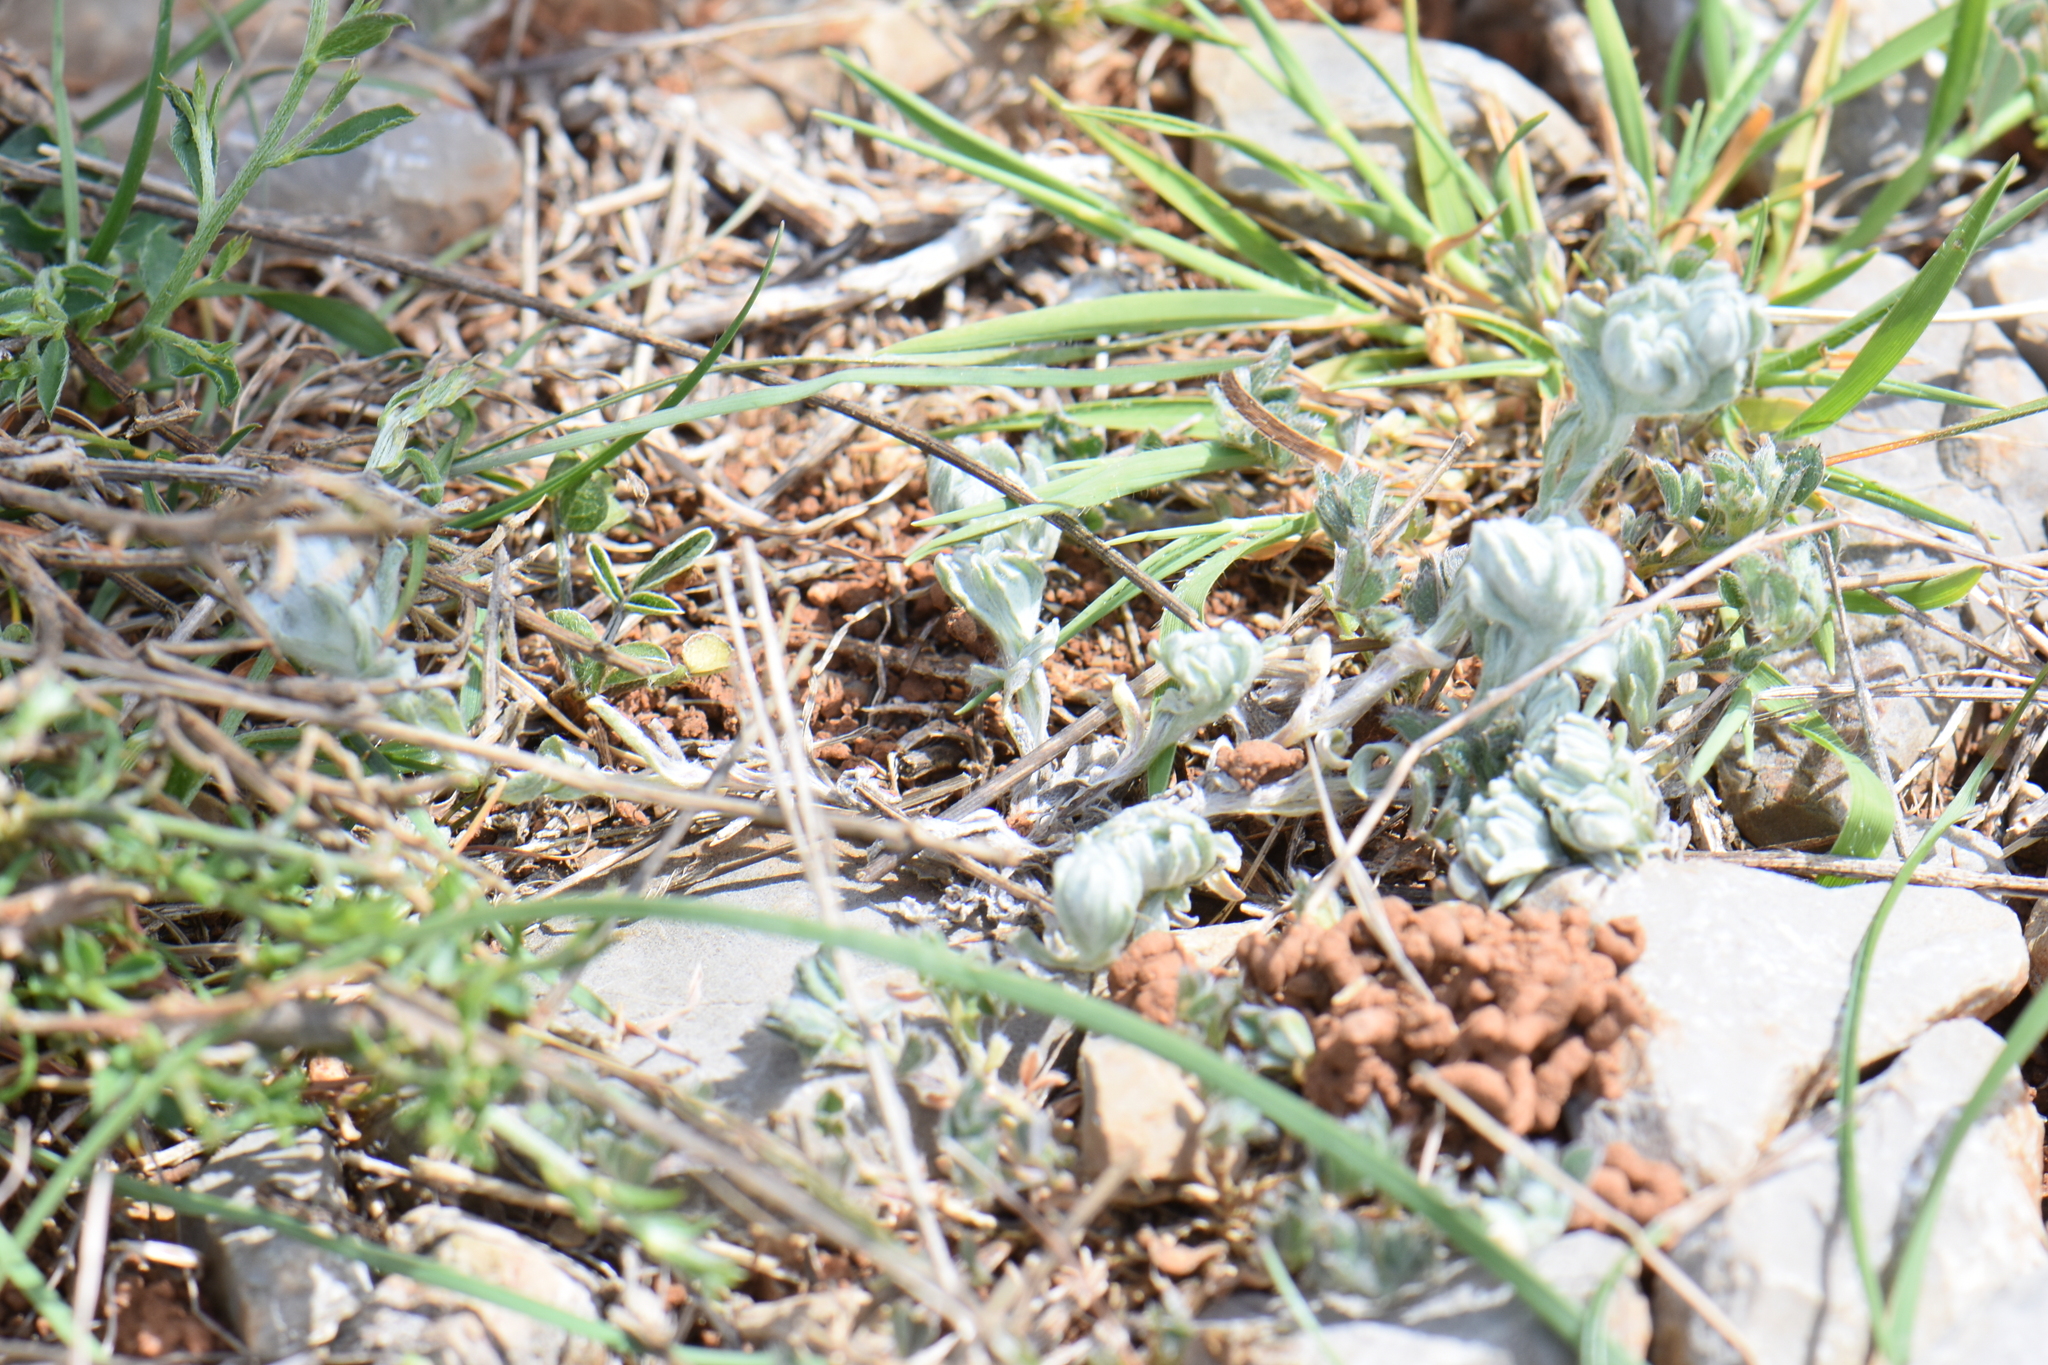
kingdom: Plantae
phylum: Tracheophyta
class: Magnoliopsida
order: Asterales
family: Asteraceae
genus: Bombycilaena
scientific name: Bombycilaena erecta
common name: Micropus
